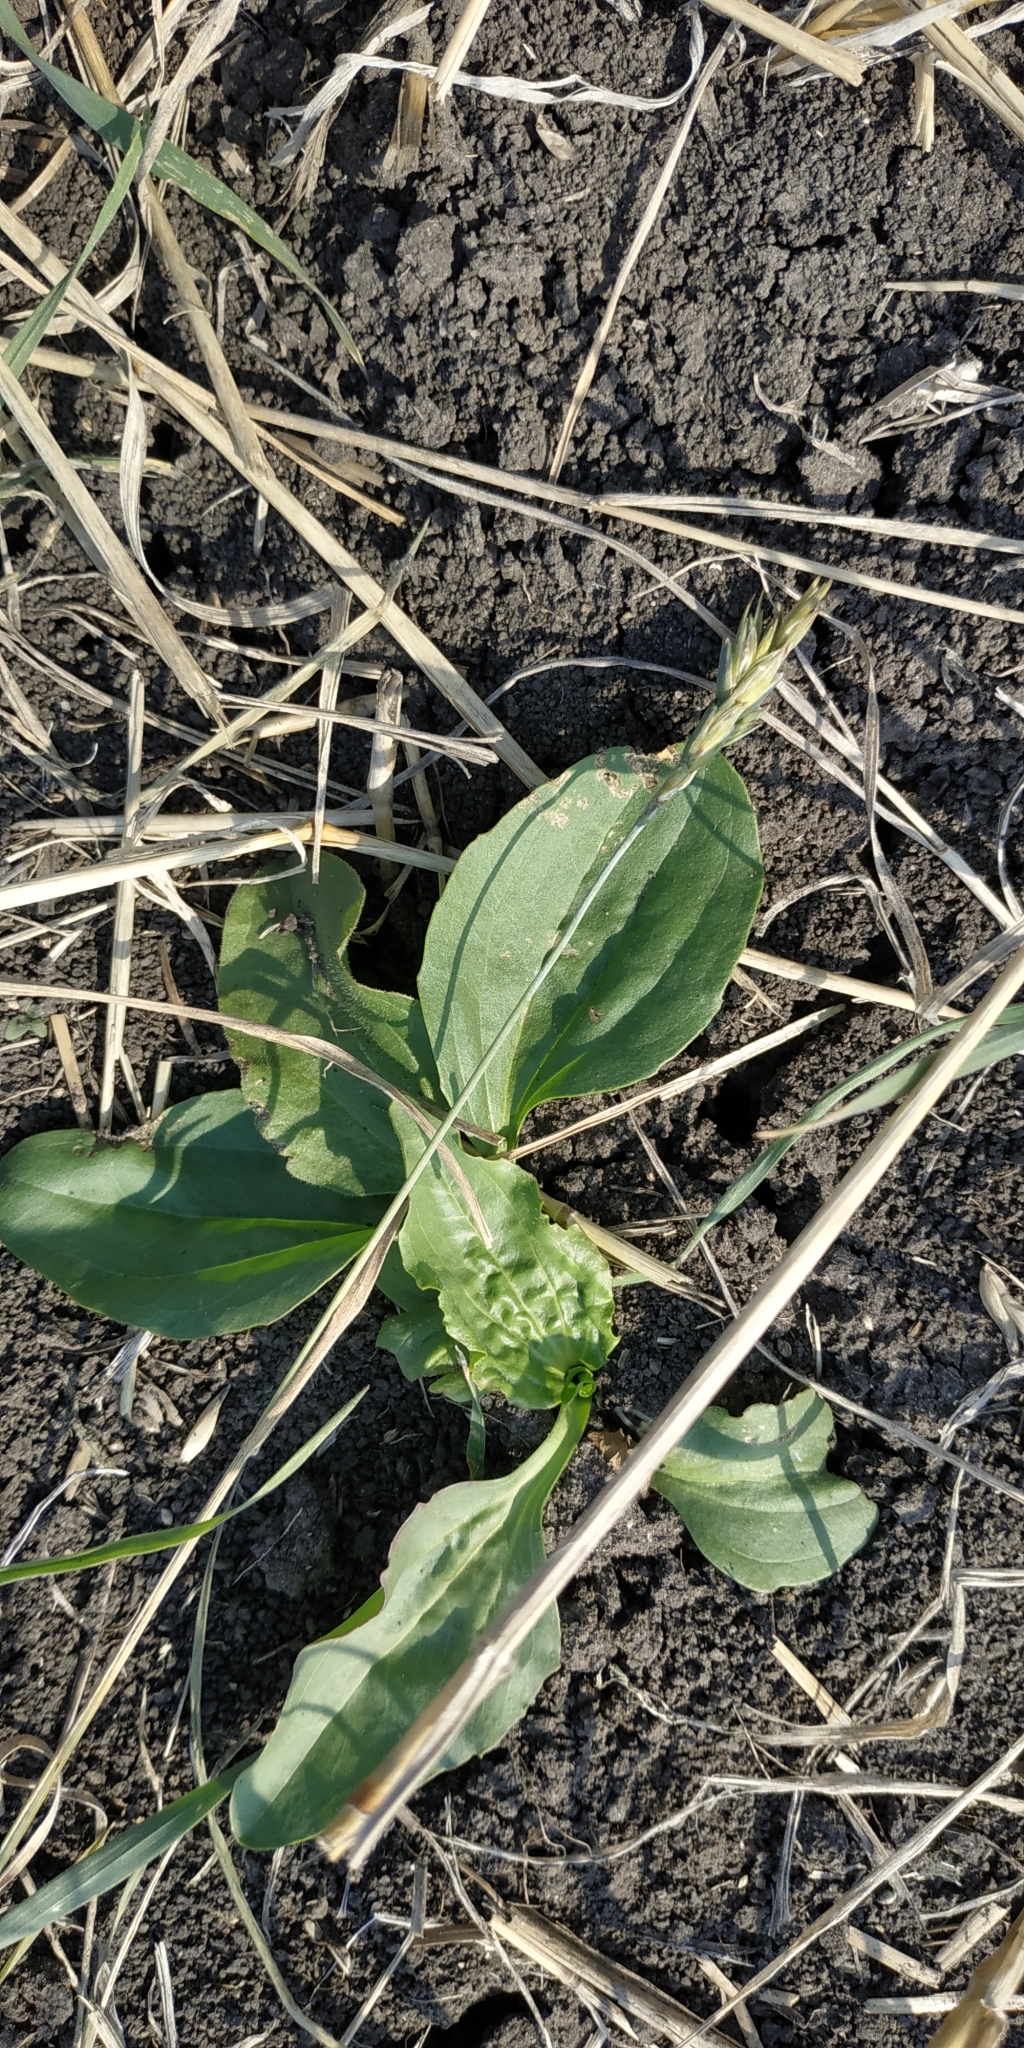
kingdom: Plantae
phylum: Tracheophyta
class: Magnoliopsida
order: Lamiales
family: Plantaginaceae
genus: Plantago
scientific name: Plantago major
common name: Common plantain
